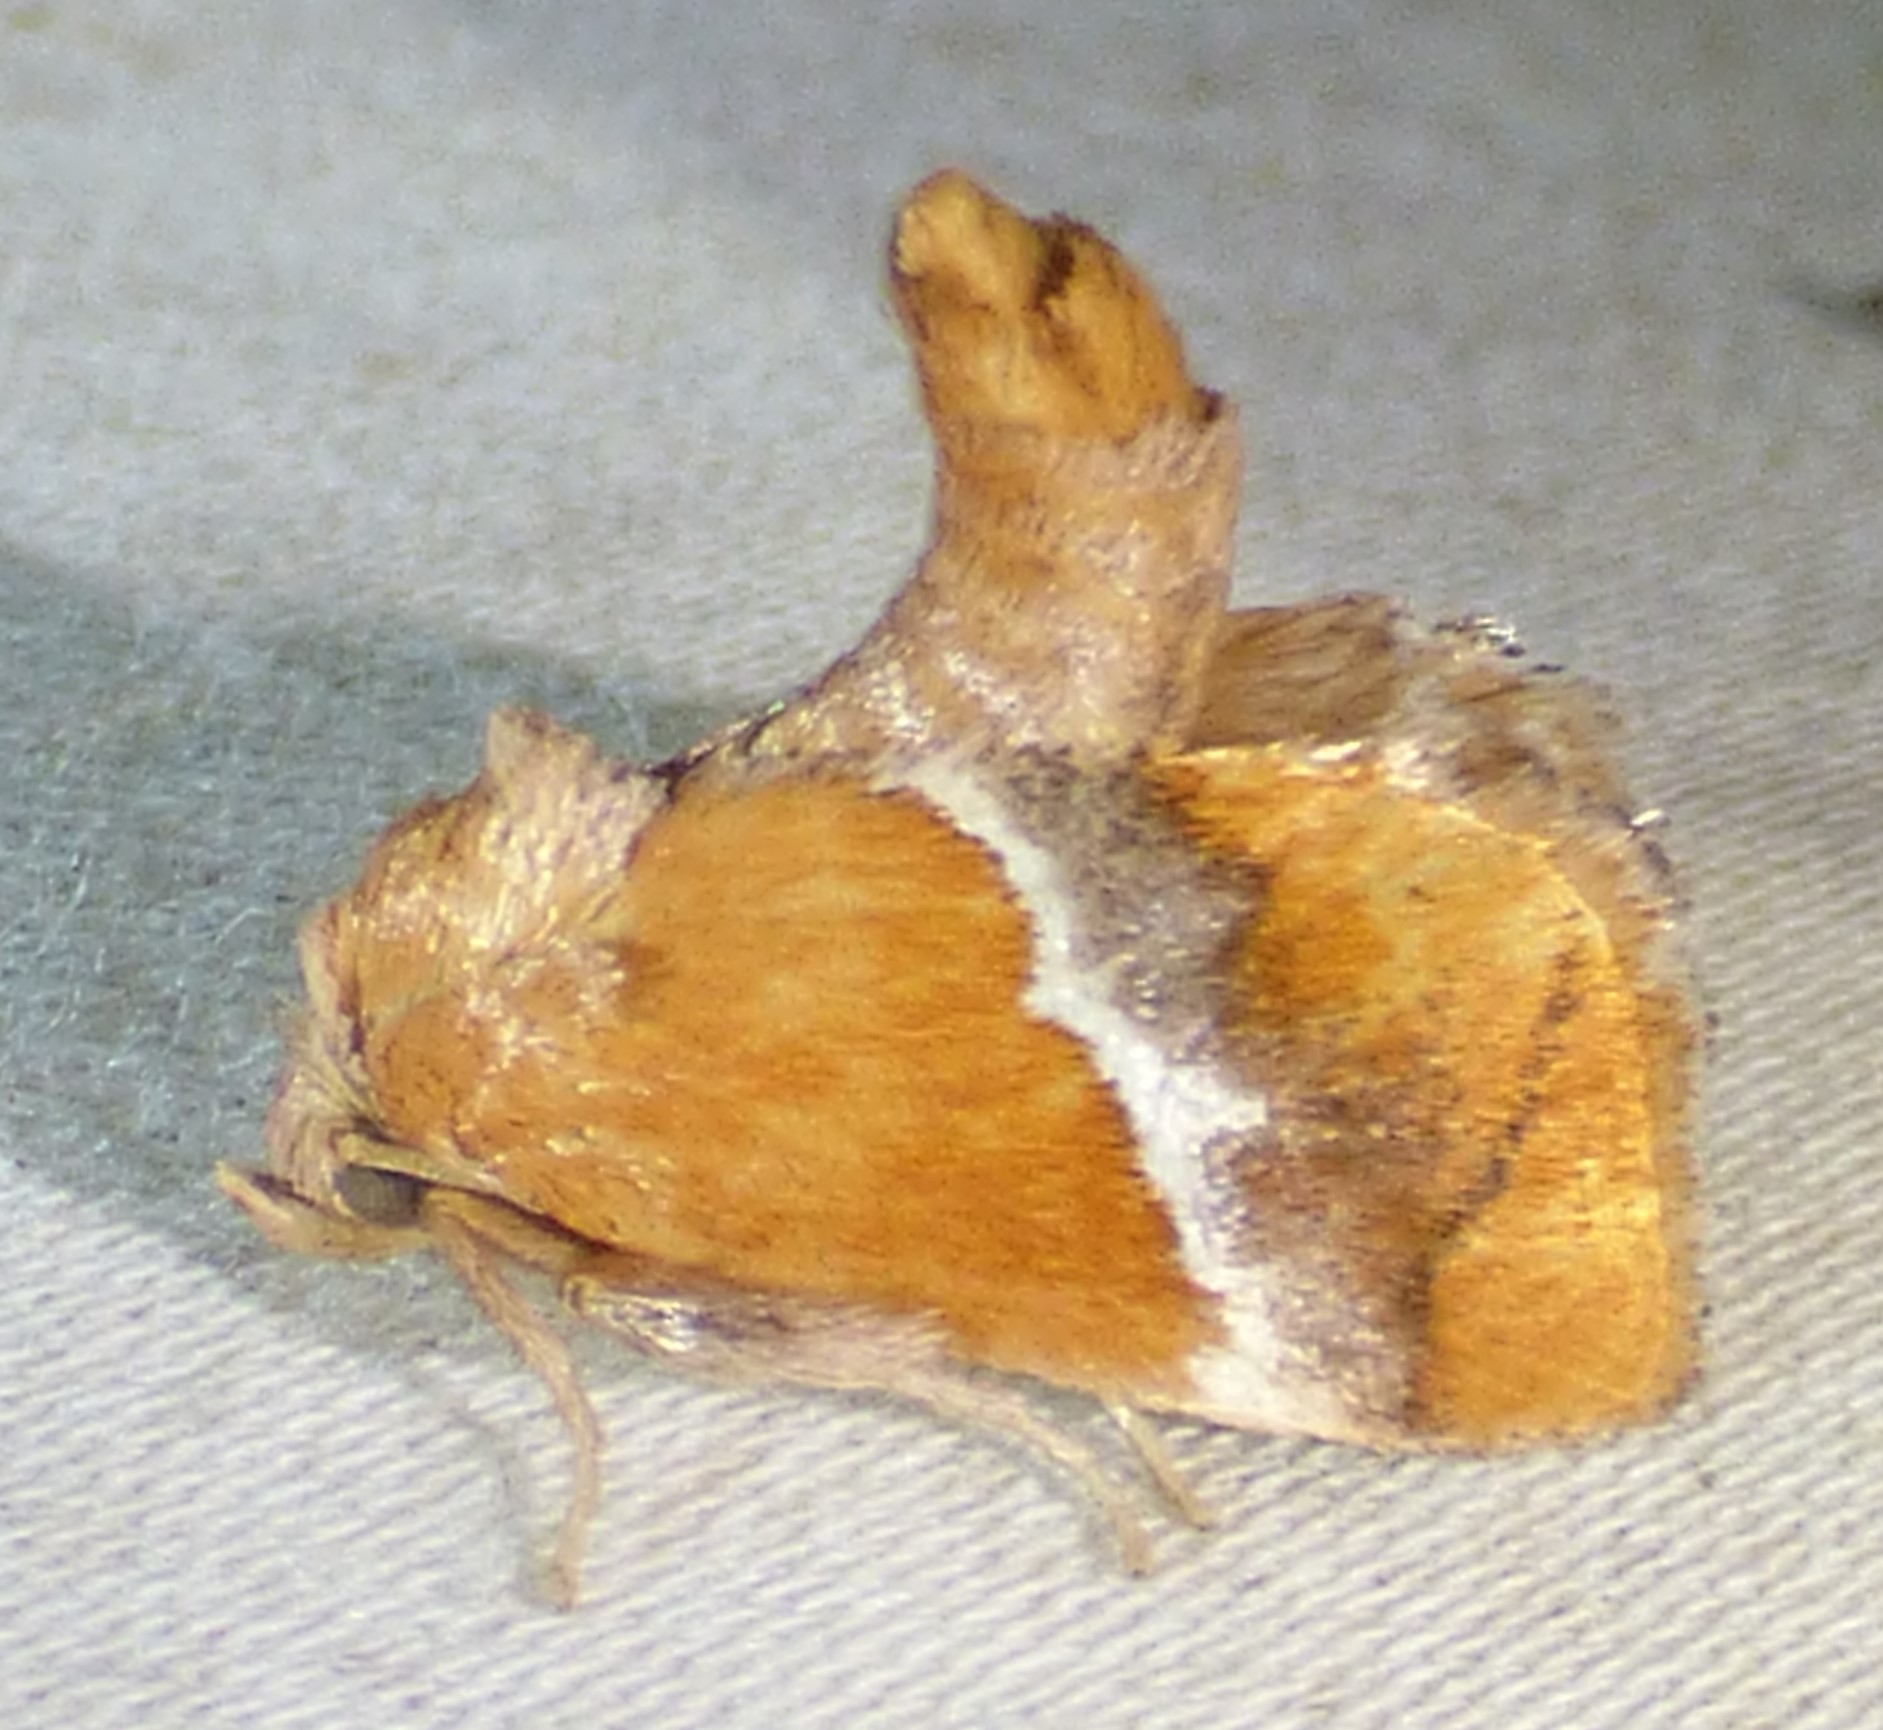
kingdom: Animalia
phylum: Arthropoda
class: Insecta
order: Lepidoptera
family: Limacodidae
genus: Lithacodes
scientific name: Lithacodes fasciola
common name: Yellow-shouldered slug moth
